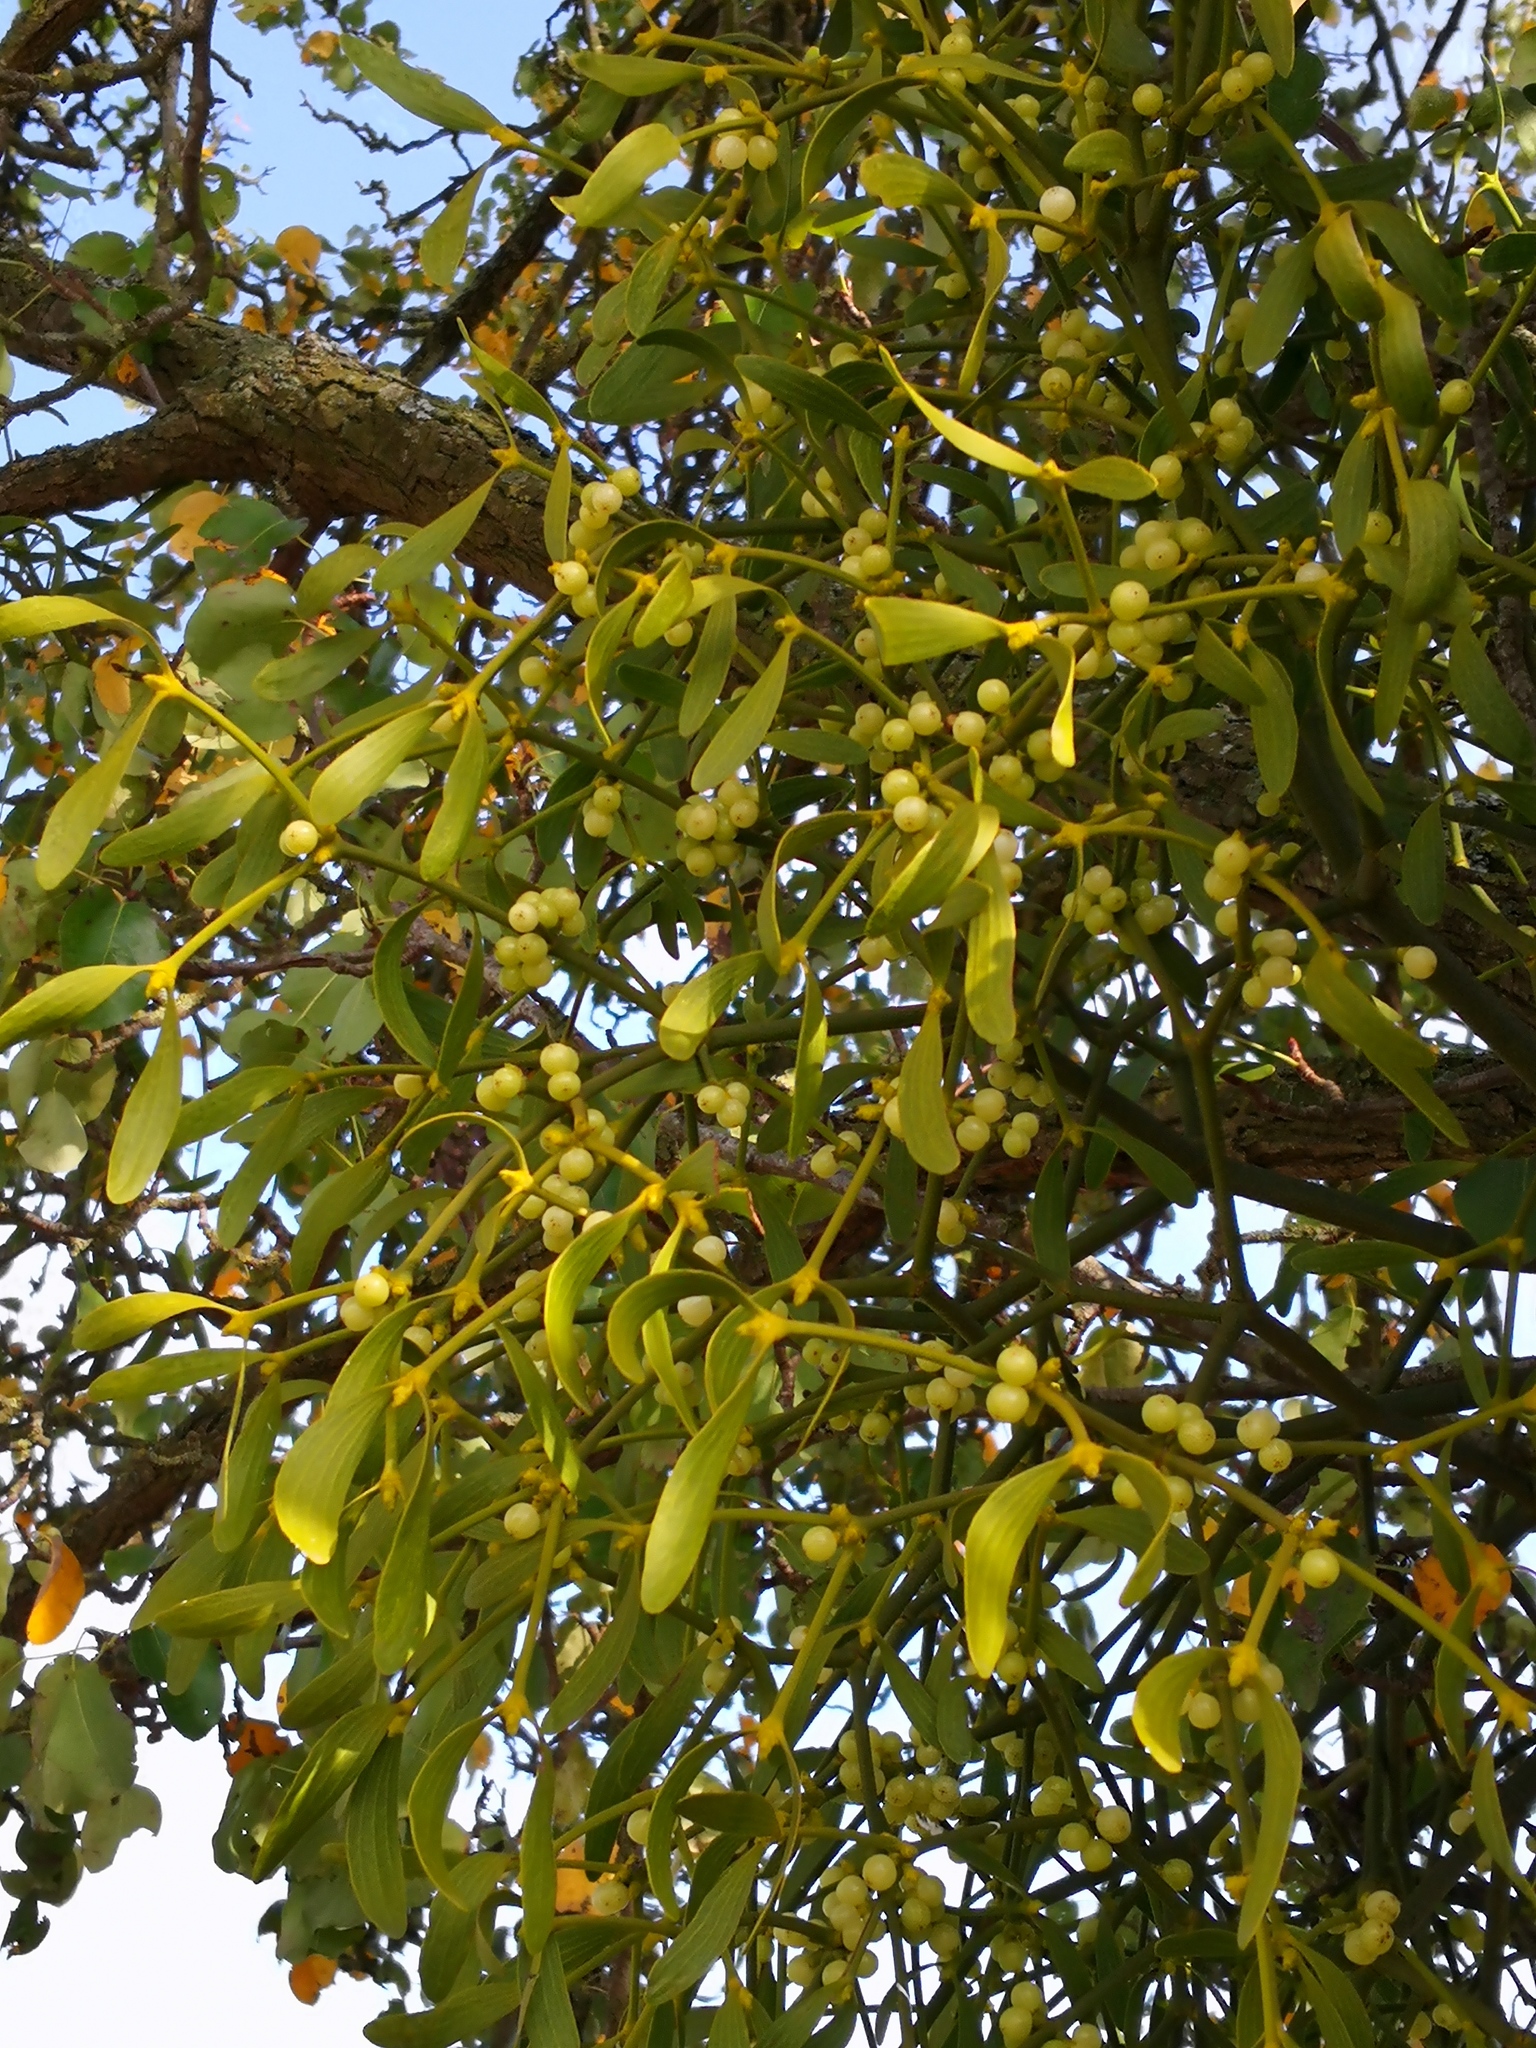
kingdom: Plantae
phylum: Tracheophyta
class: Magnoliopsida
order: Santalales
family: Viscaceae
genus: Viscum
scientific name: Viscum album
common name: Mistletoe
